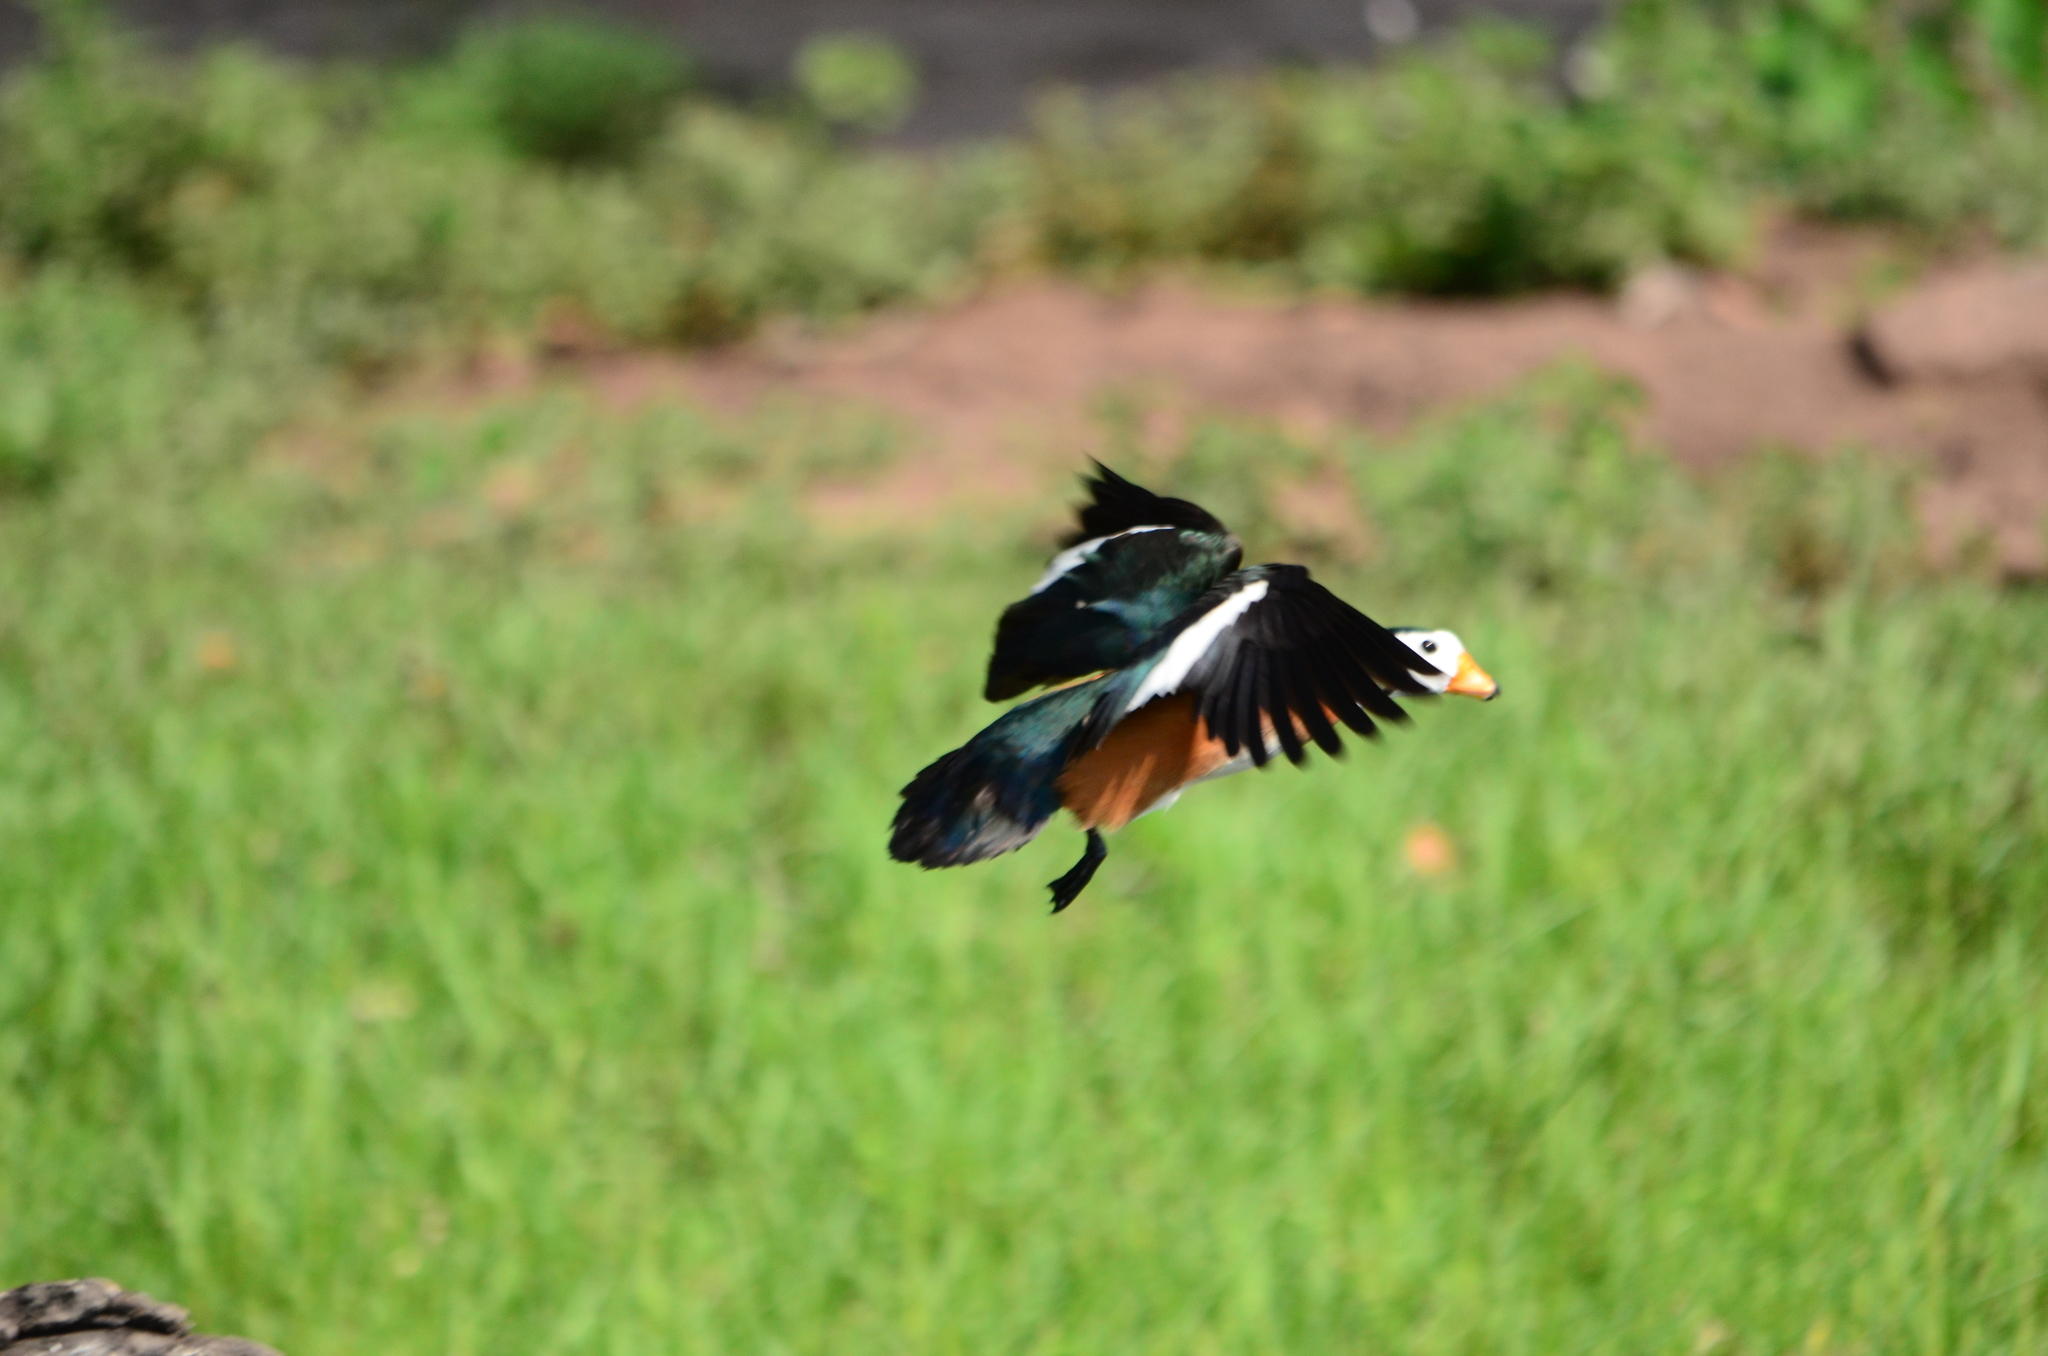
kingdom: Animalia
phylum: Chordata
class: Aves
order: Anseriformes
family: Anatidae
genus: Nettapus
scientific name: Nettapus auritus
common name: African pygmy-goose
